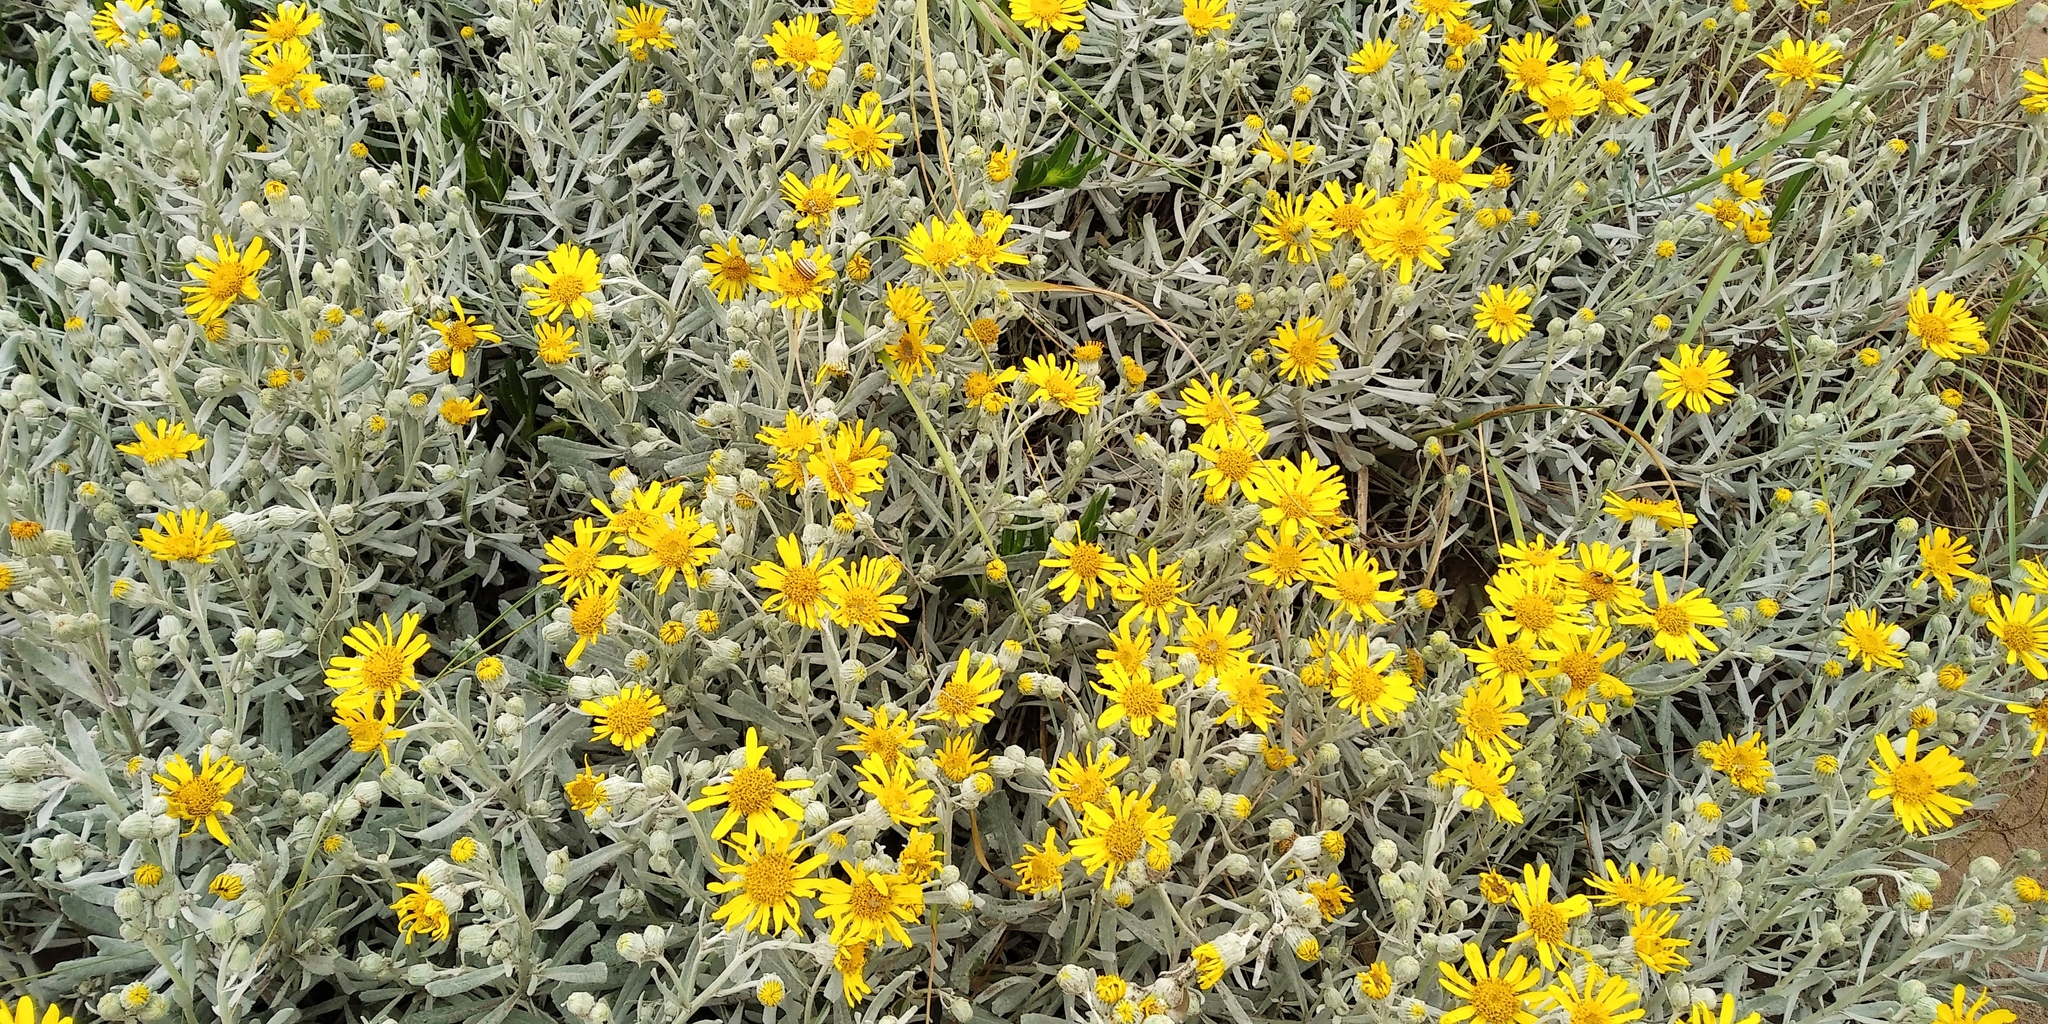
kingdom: Plantae
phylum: Tracheophyta
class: Magnoliopsida
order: Asterales
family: Asteraceae
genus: Senecio
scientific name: Senecio crassiflorus
